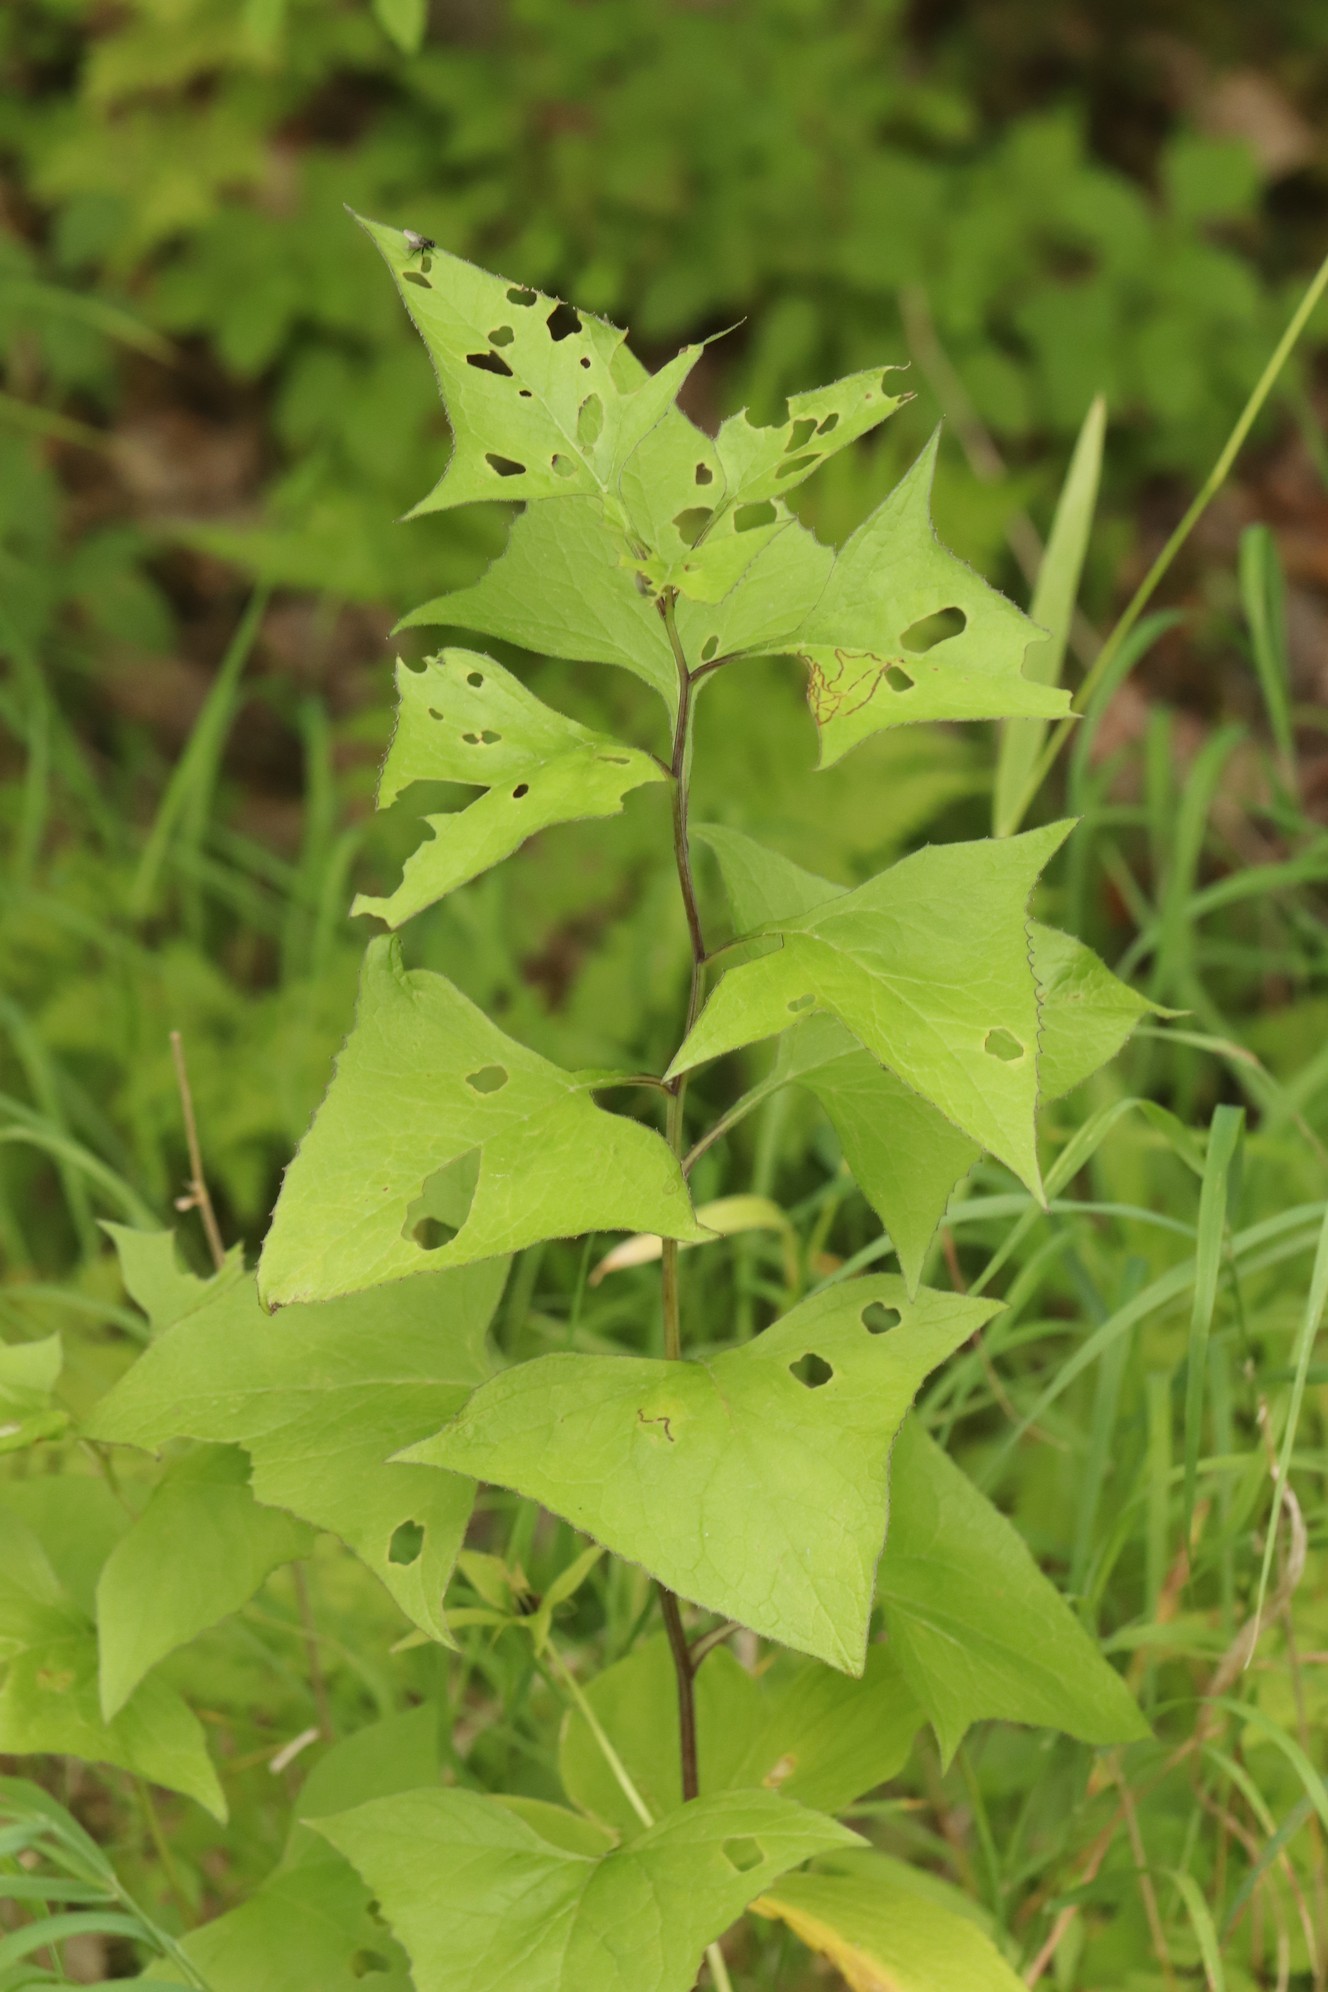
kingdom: Plantae
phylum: Tracheophyta
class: Magnoliopsida
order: Asterales
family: Asteraceae
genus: Parasenecio
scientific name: Parasenecio hastatus
